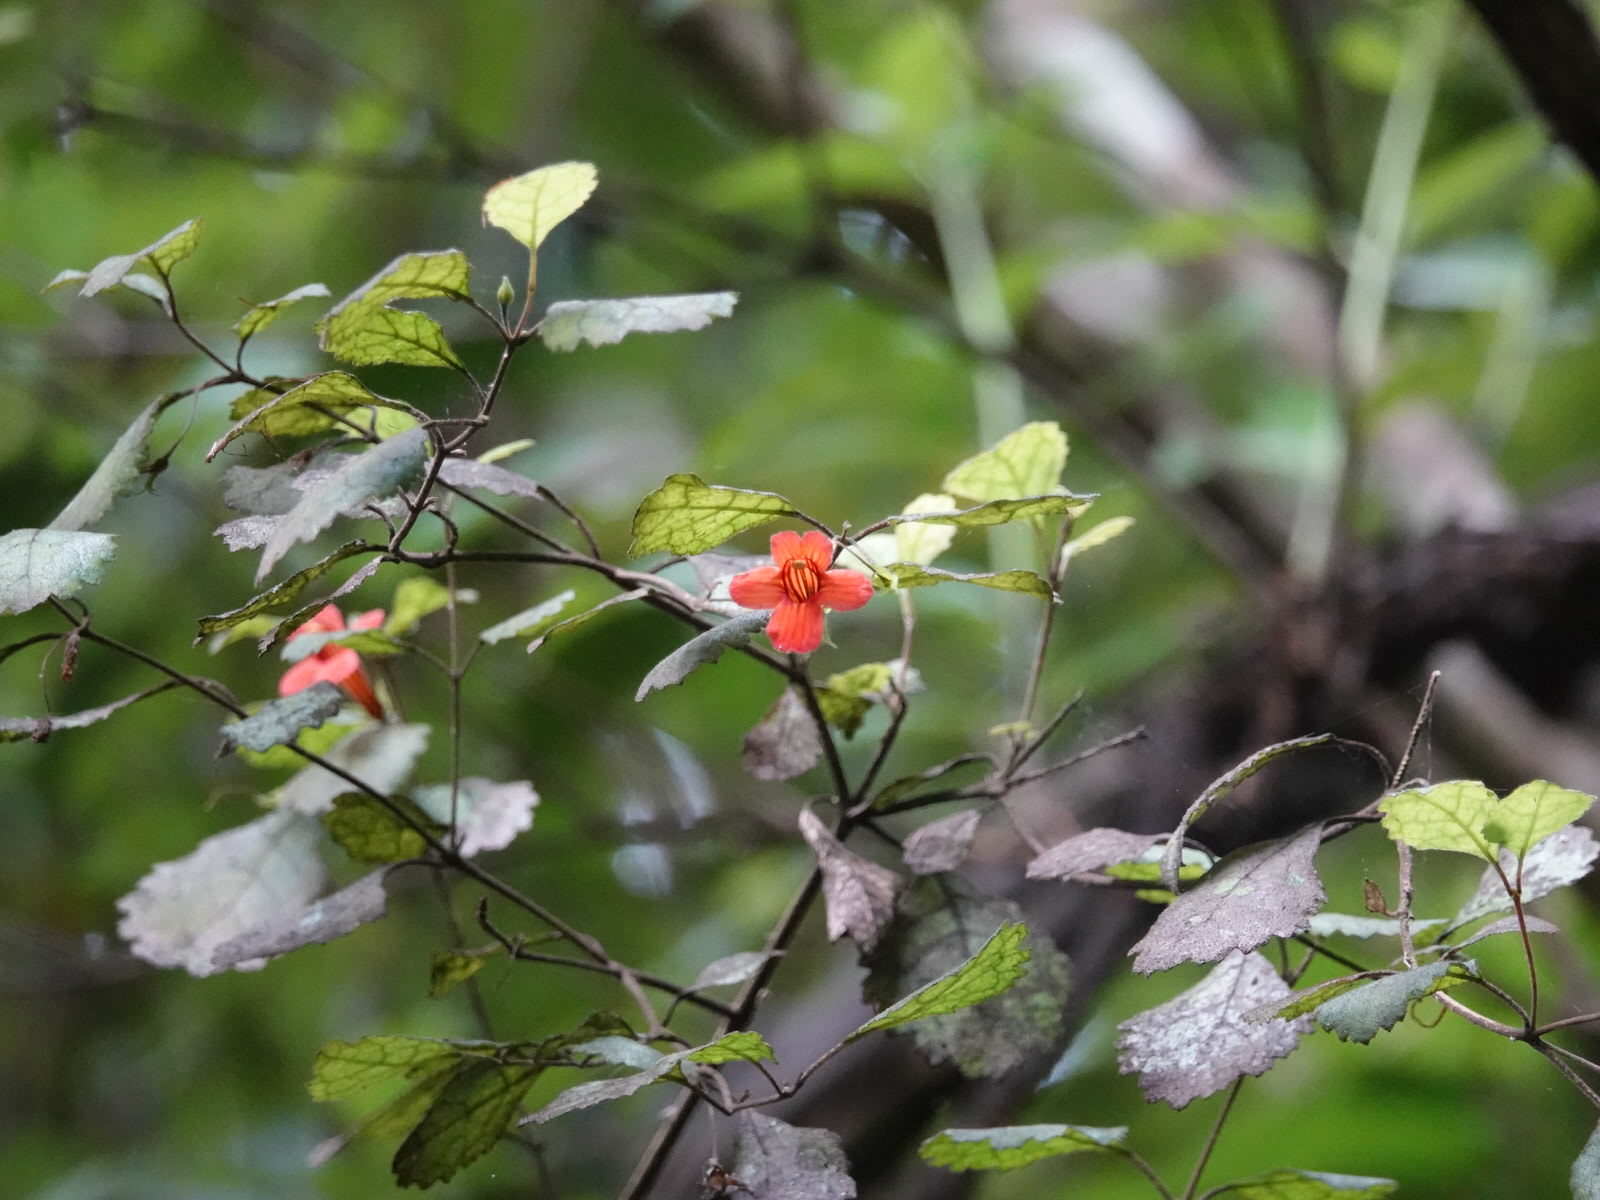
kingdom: Plantae
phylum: Tracheophyta
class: Magnoliopsida
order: Lamiales
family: Gesneriaceae
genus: Rhabdothamnus
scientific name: Rhabdothamnus solandri
